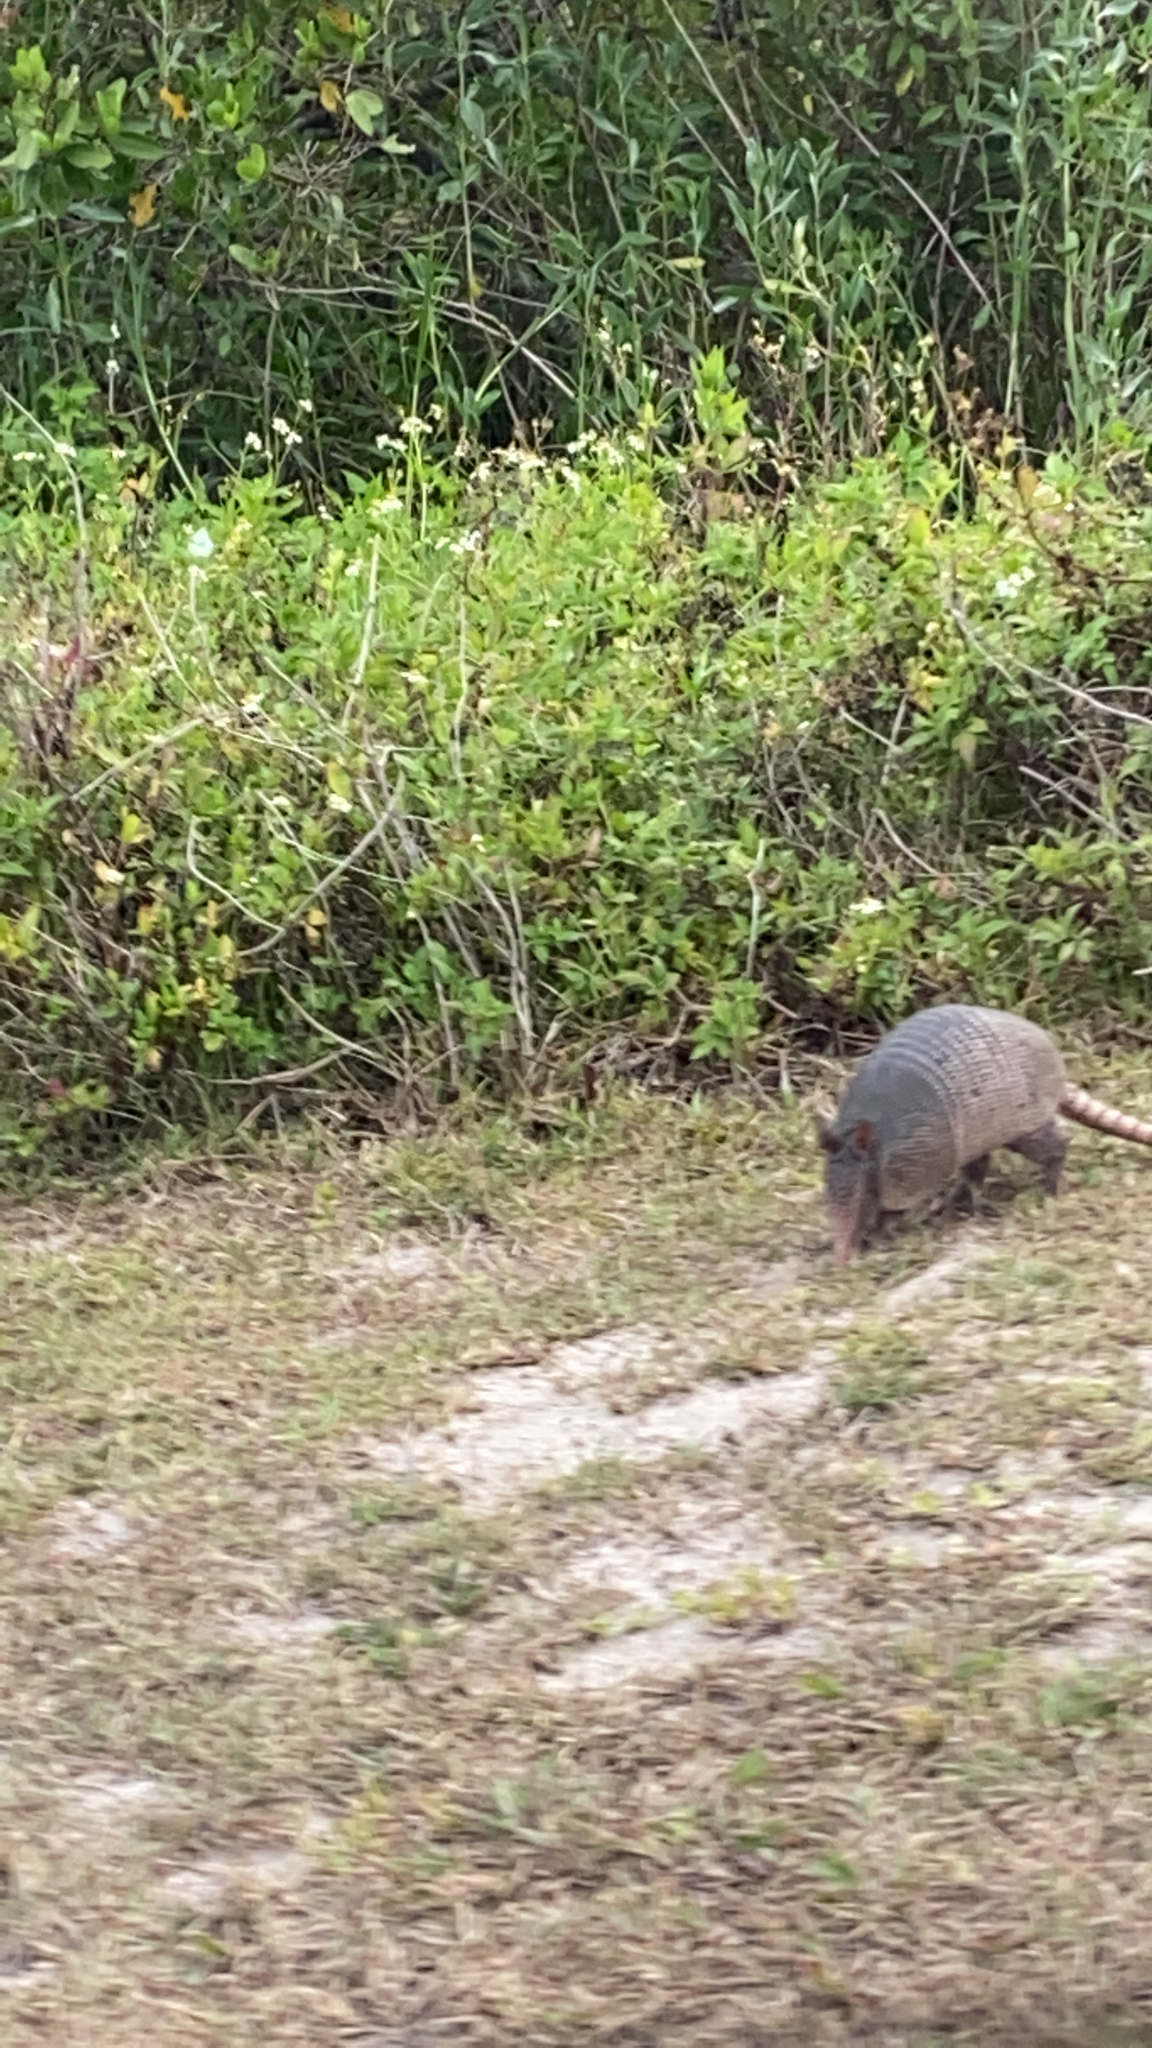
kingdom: Animalia
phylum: Chordata
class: Mammalia
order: Cingulata
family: Dasypodidae
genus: Dasypus
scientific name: Dasypus novemcinctus
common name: Nine-banded armadillo
